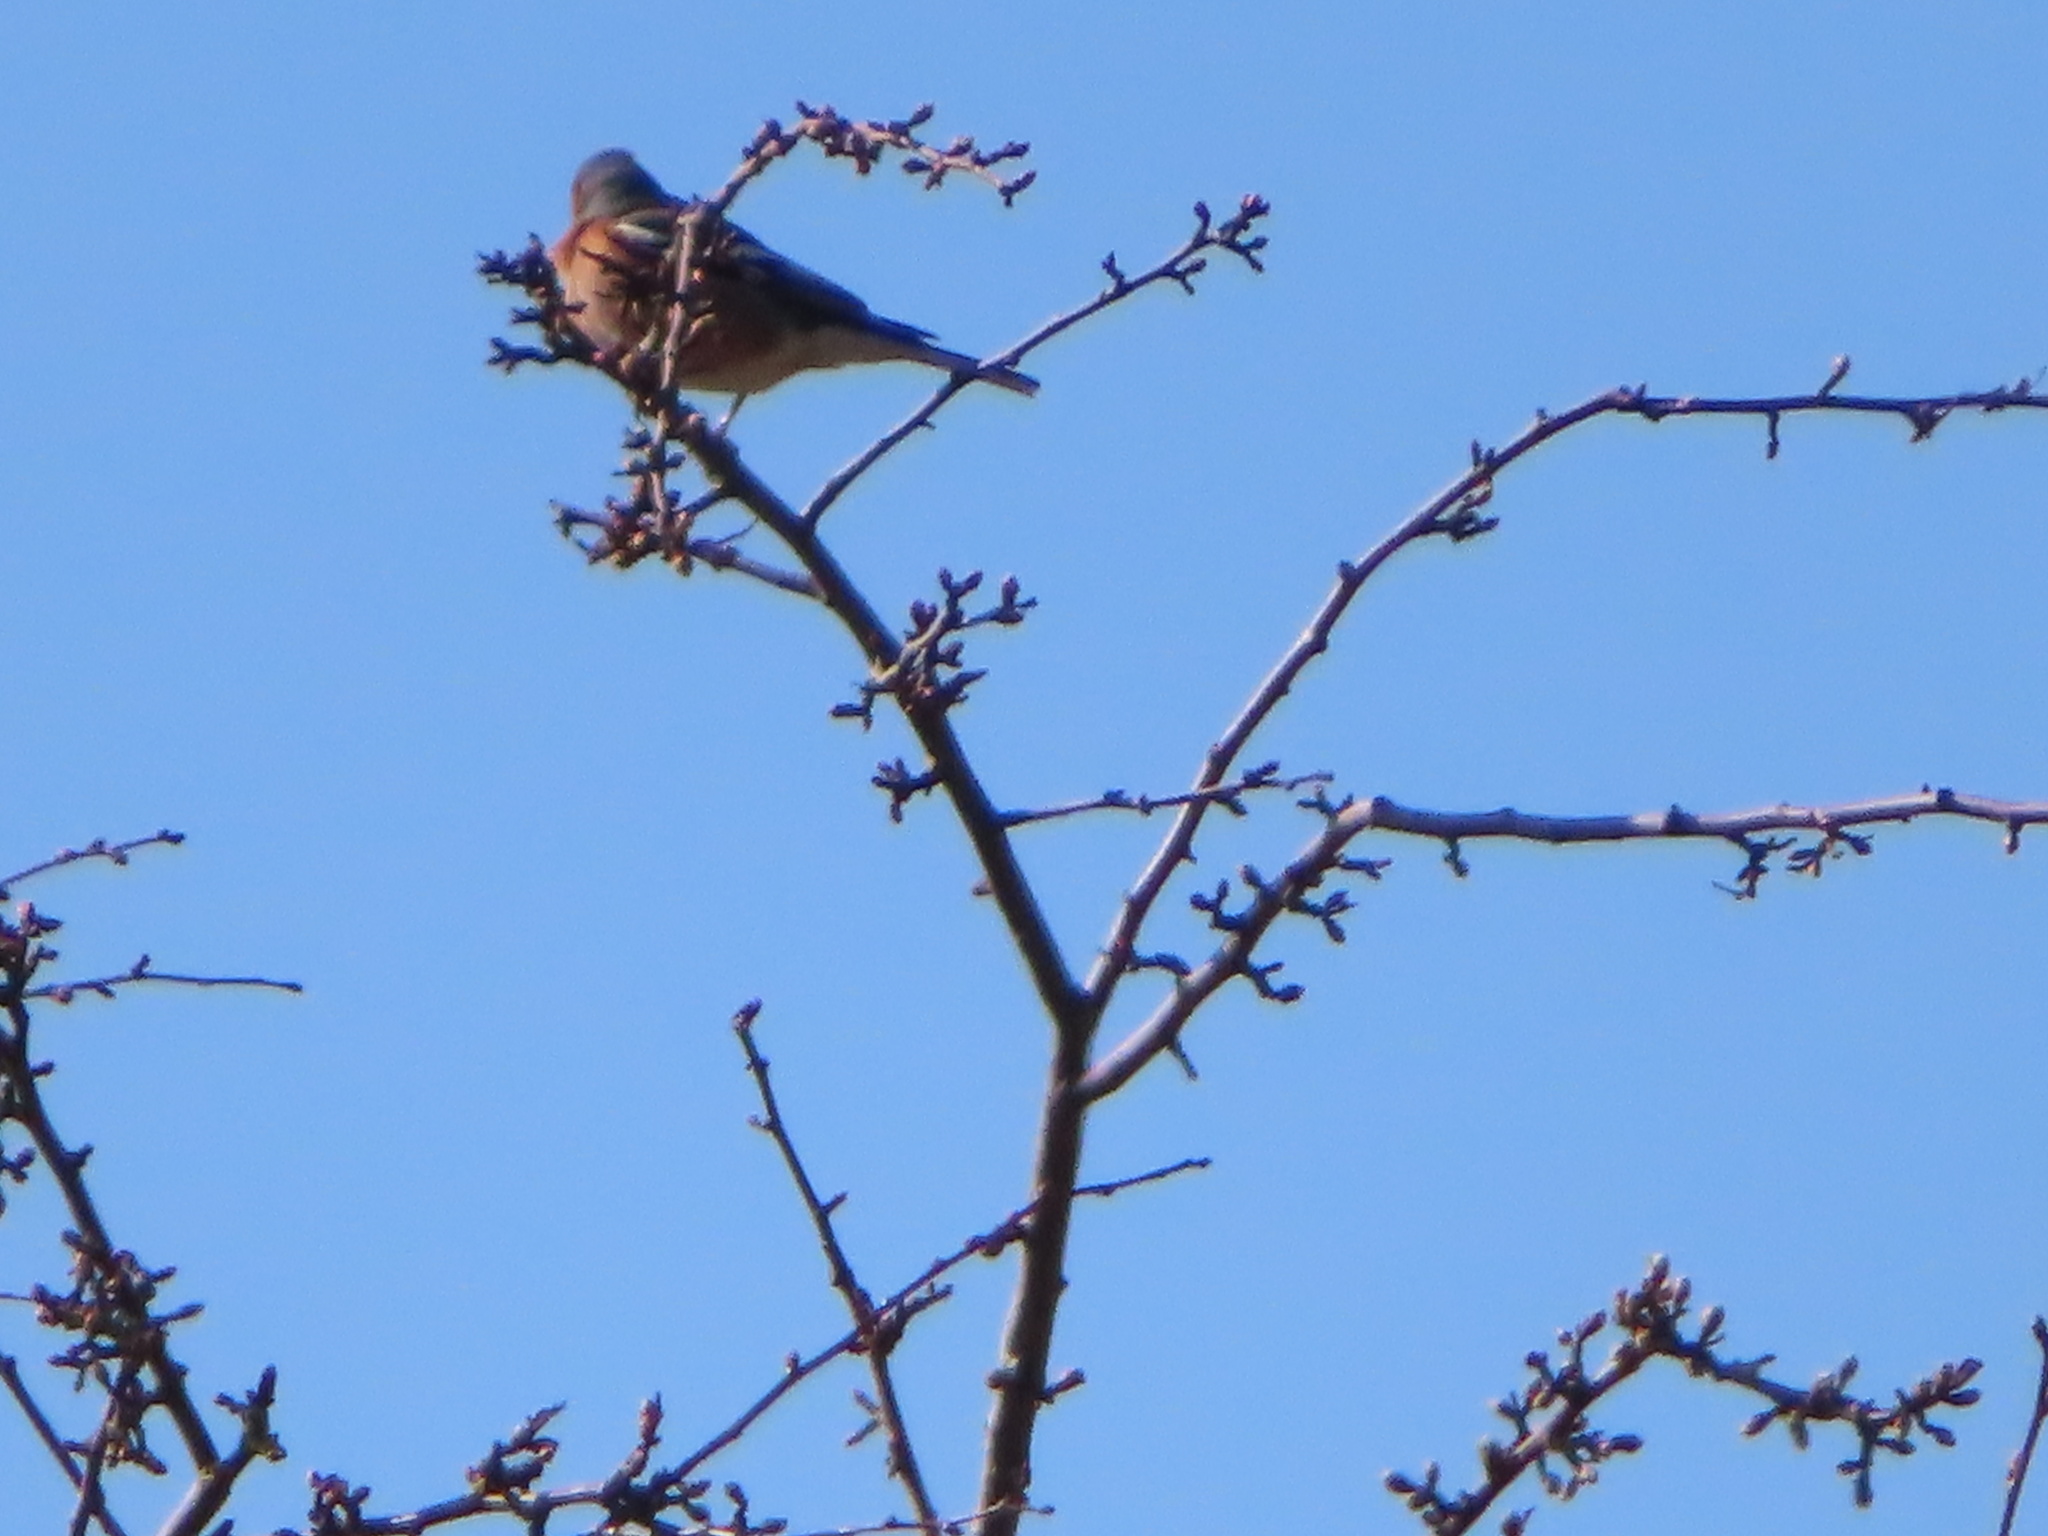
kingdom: Animalia
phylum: Chordata
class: Aves
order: Passeriformes
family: Fringillidae
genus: Fringilla
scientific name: Fringilla coelebs
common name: Common chaffinch
